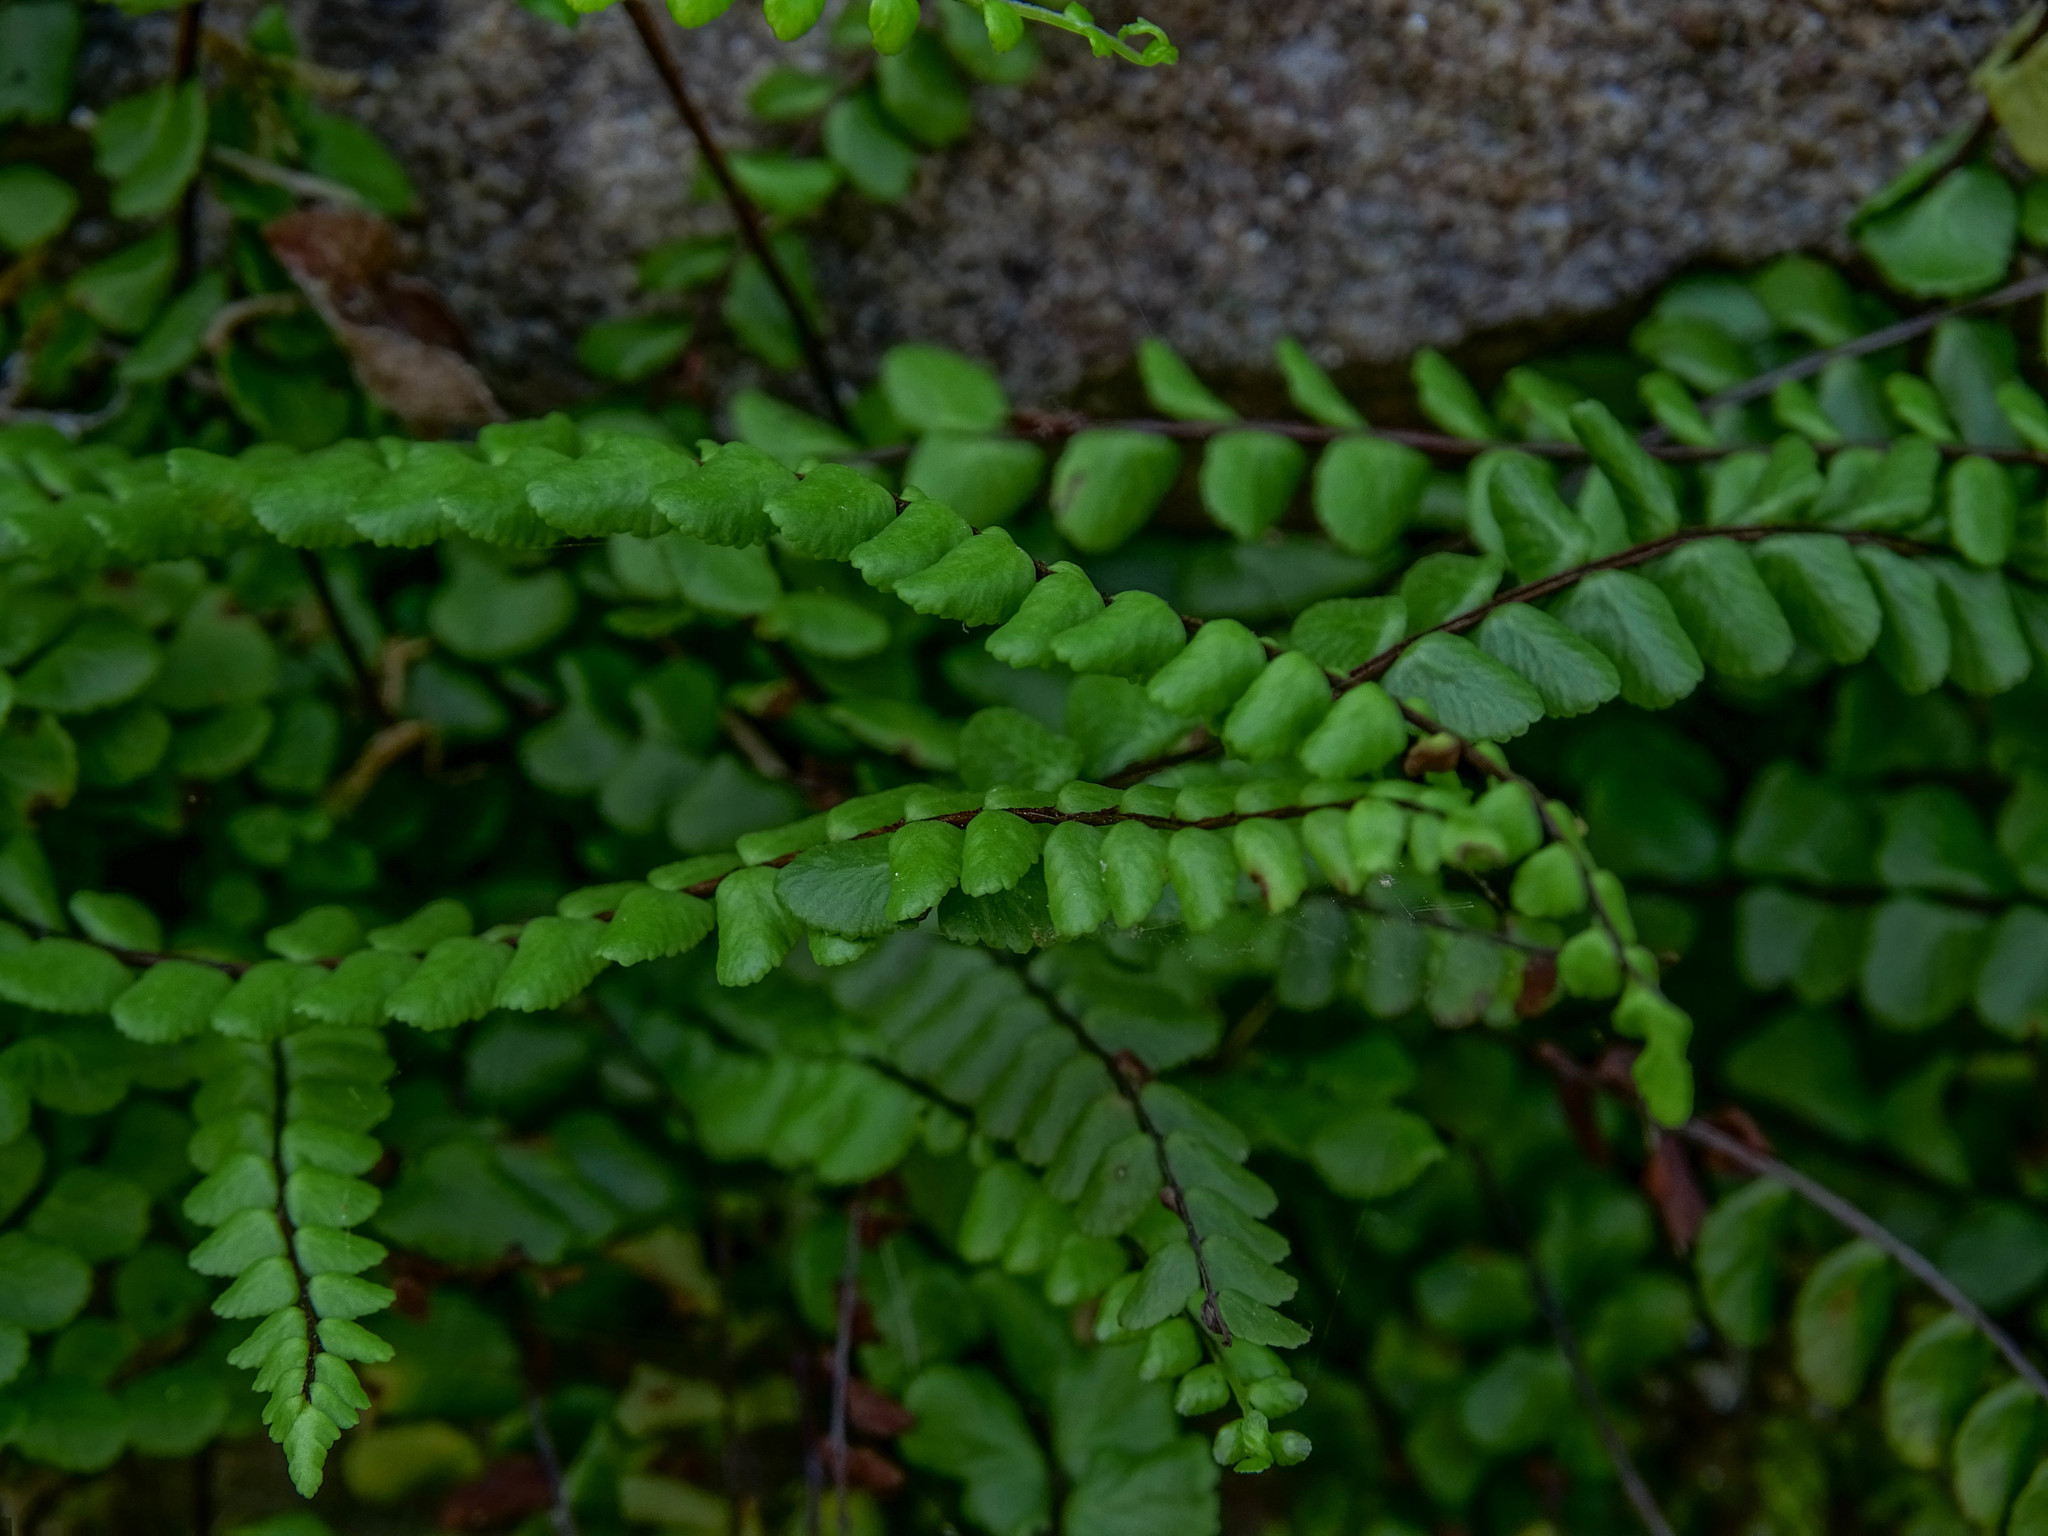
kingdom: Plantae
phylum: Tracheophyta
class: Polypodiopsida
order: Polypodiales
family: Aspleniaceae
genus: Asplenium
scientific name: Asplenium trichomanes
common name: Maidenhair spleenwort
